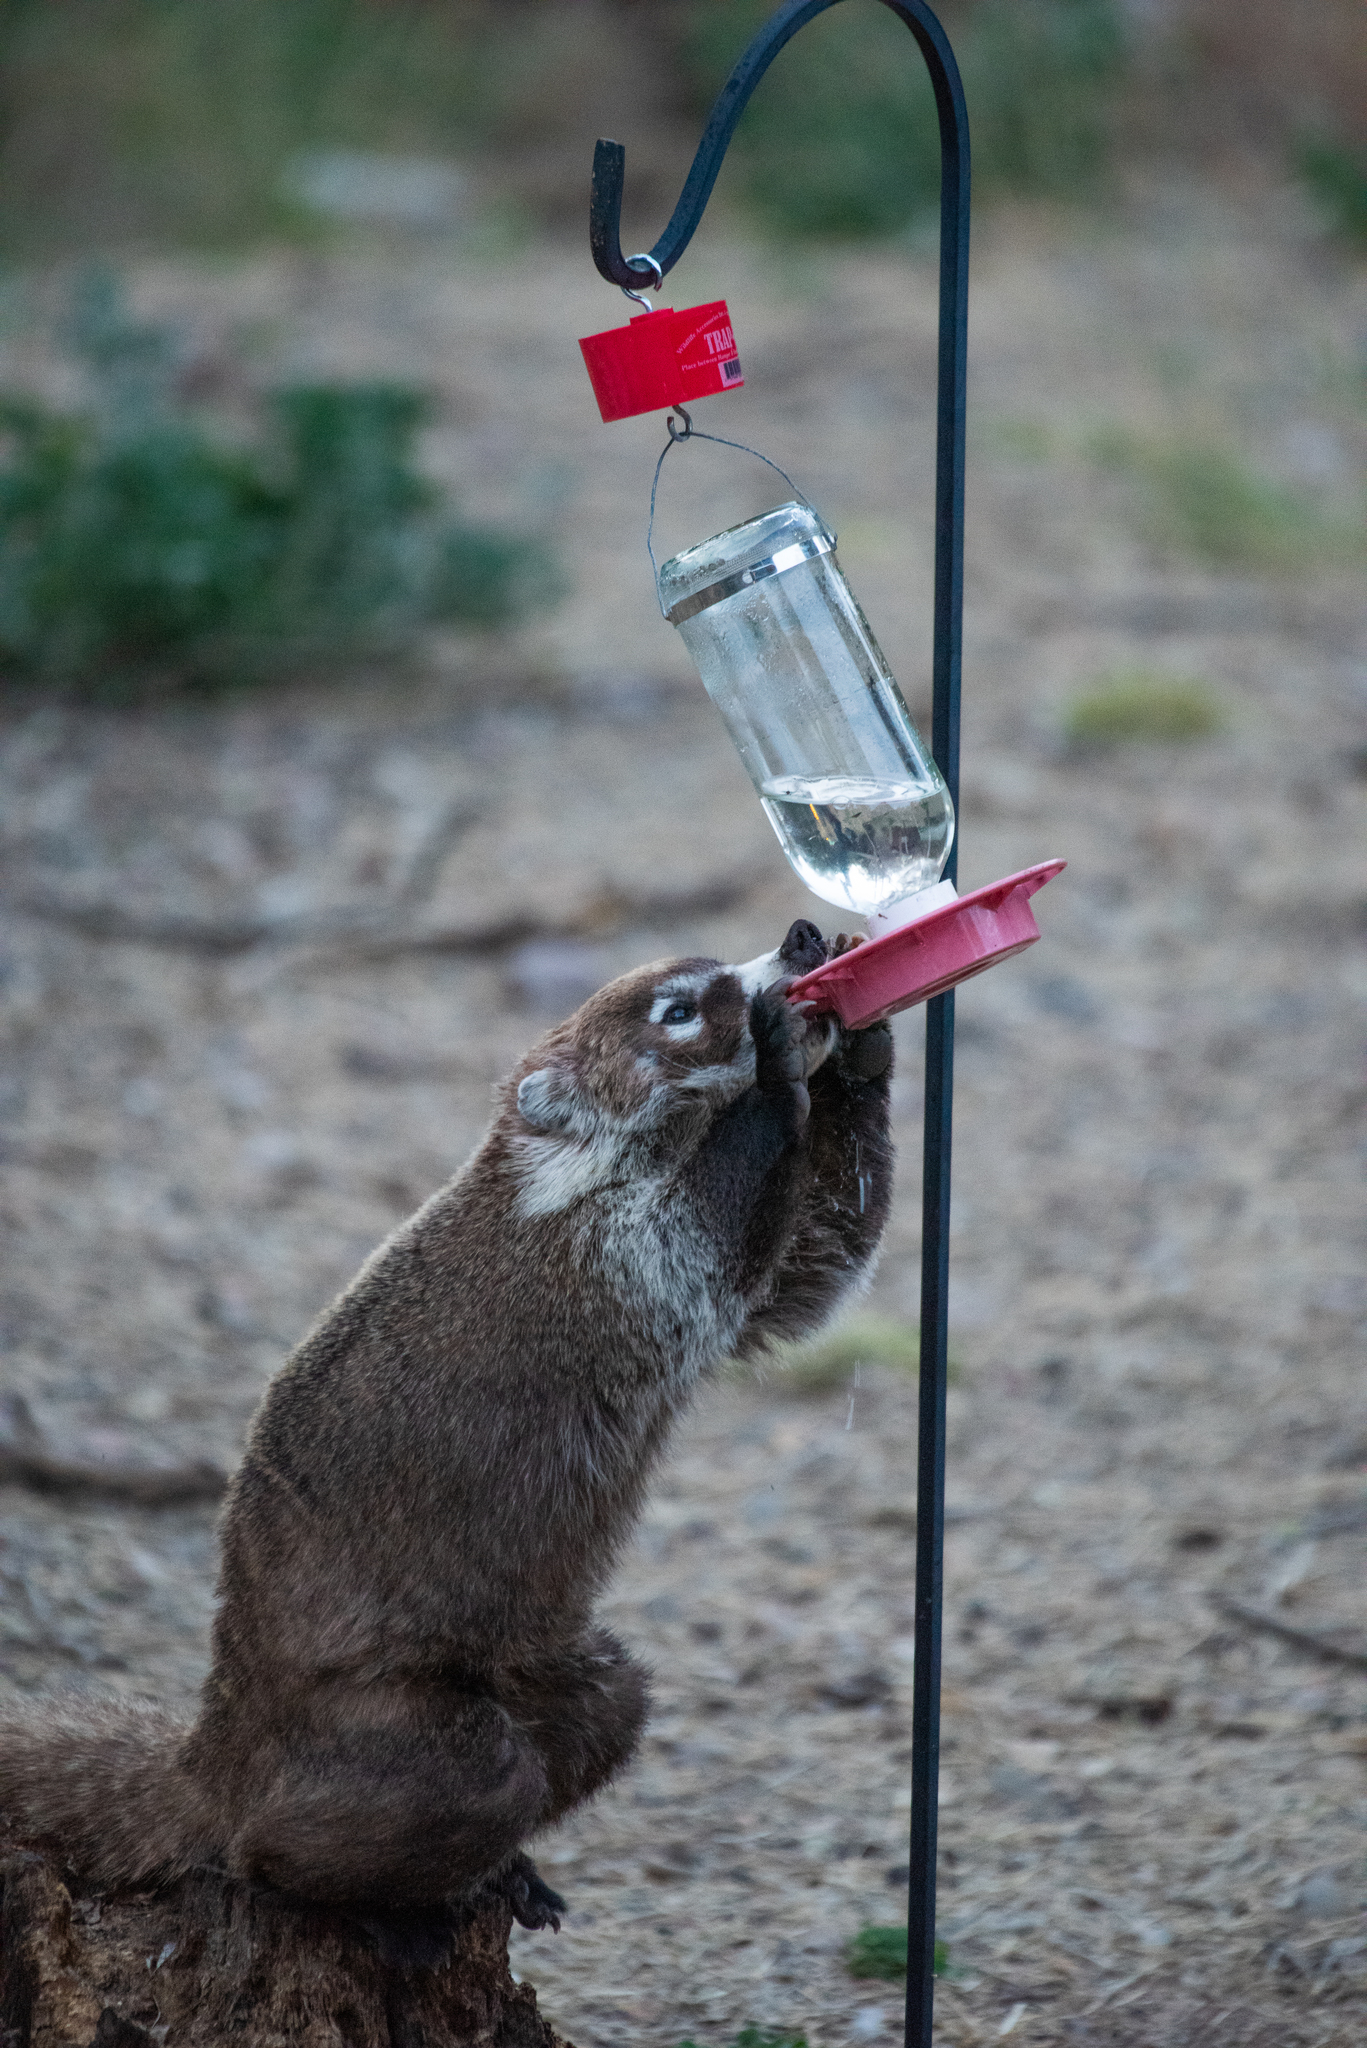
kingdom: Animalia
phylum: Chordata
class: Mammalia
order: Carnivora
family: Procyonidae
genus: Nasua
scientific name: Nasua narica
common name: White-nosed coati
